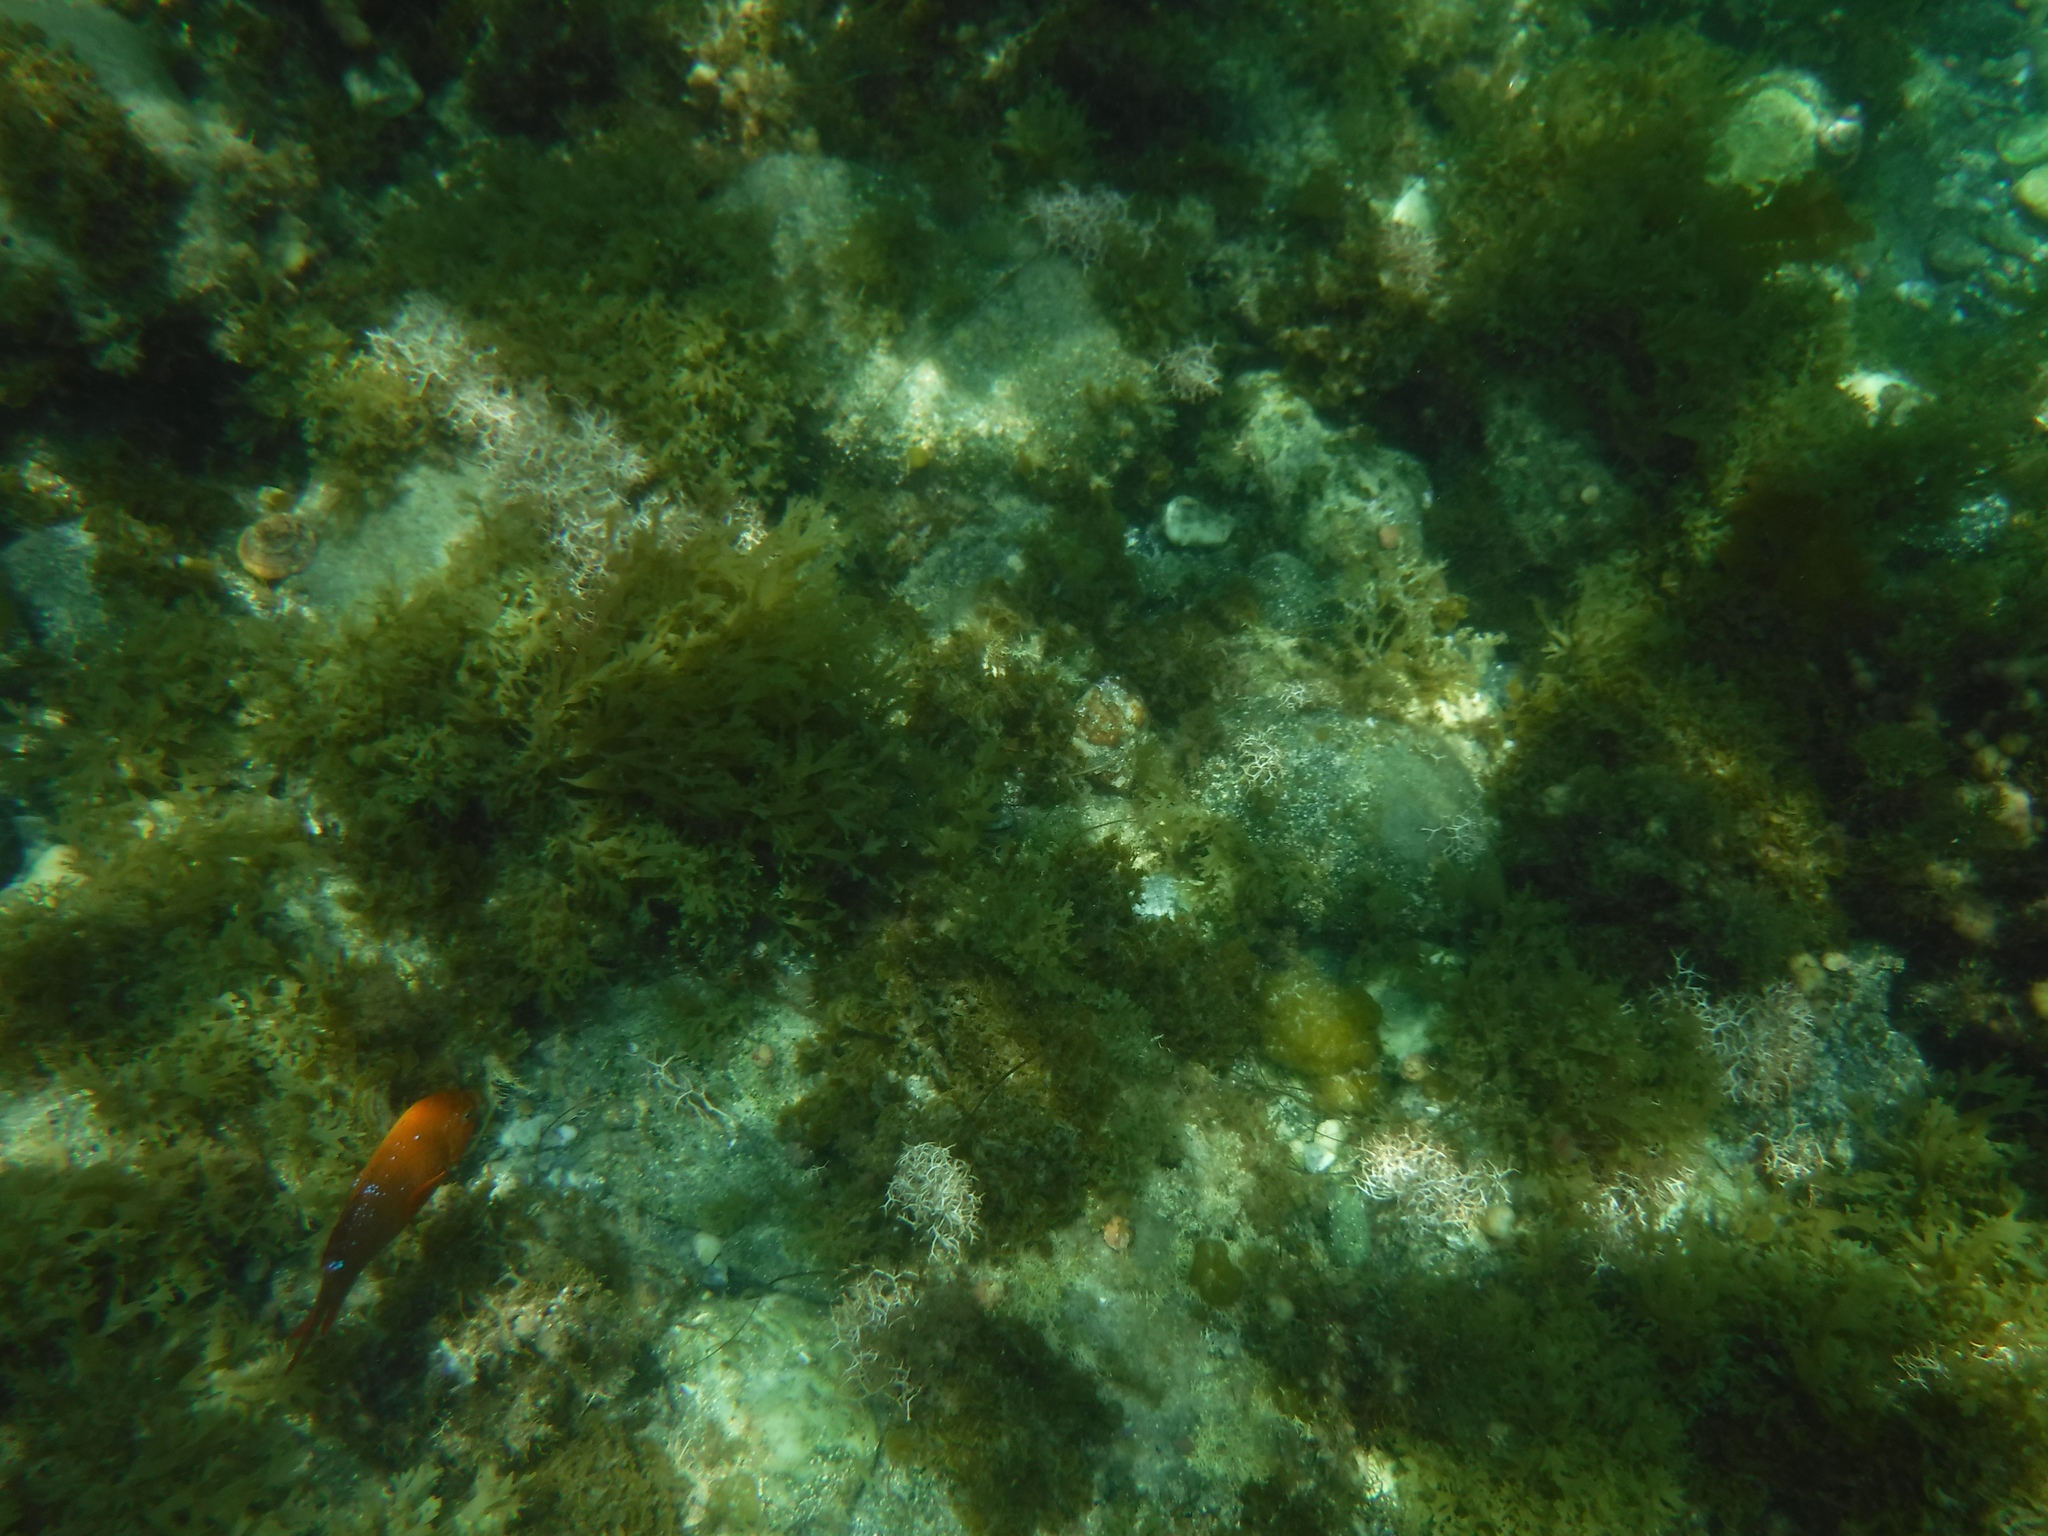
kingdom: Animalia
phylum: Chordata
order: Perciformes
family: Pomacentridae
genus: Hypsypops
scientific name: Hypsypops rubicundus
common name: Garibaldi
